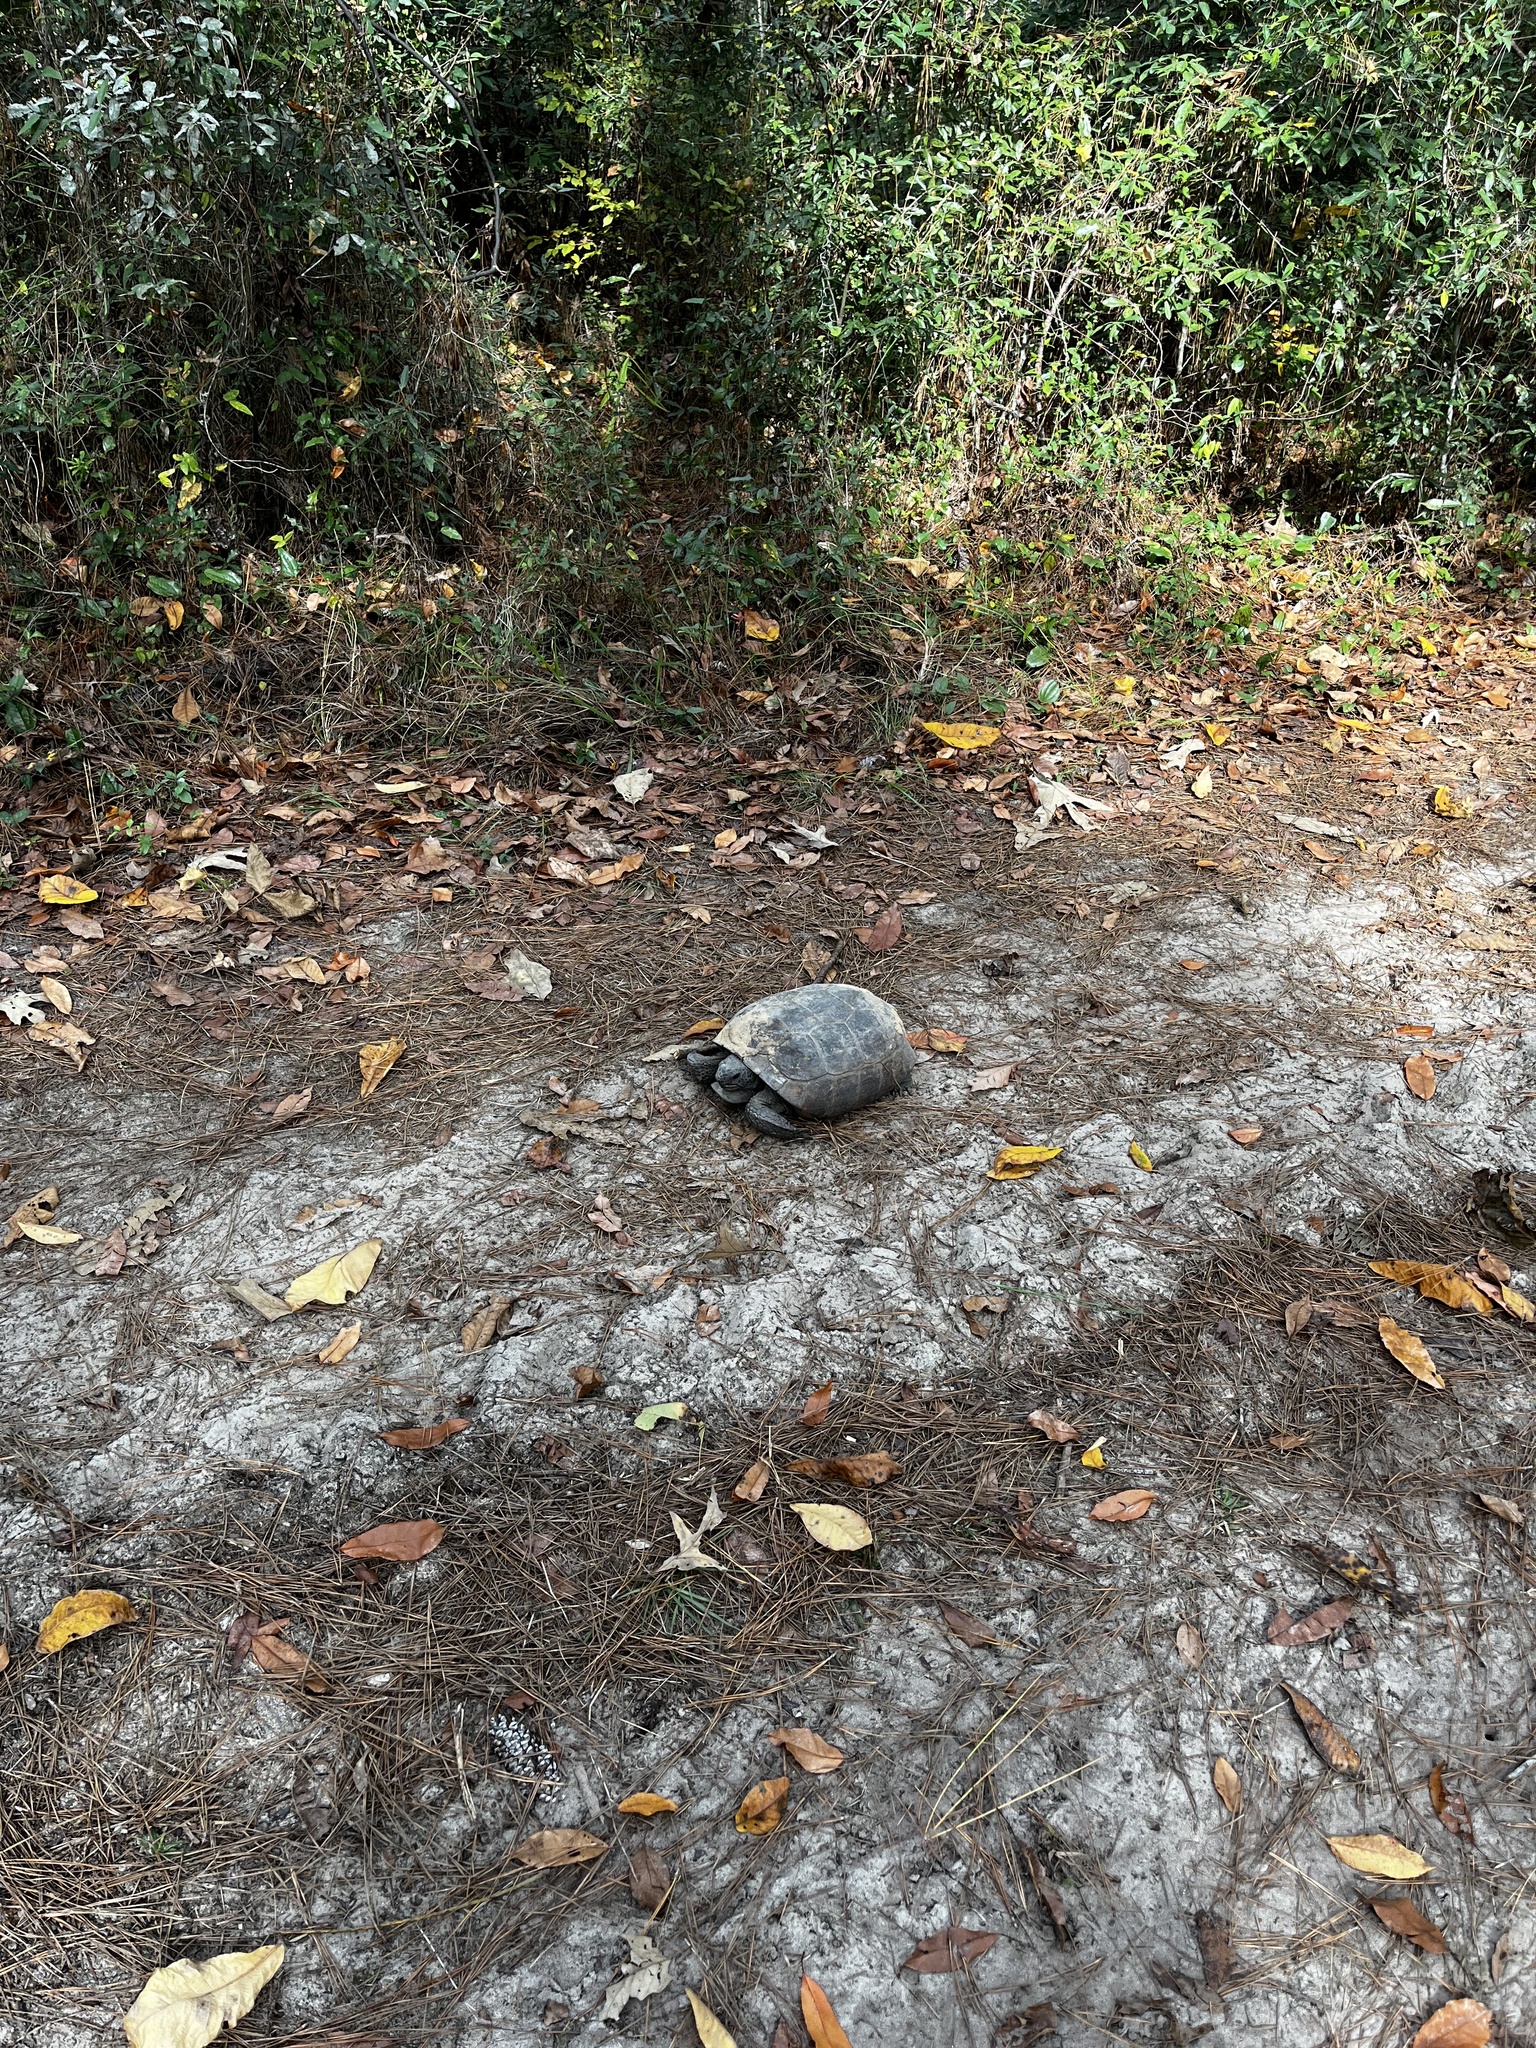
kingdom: Animalia
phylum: Chordata
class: Testudines
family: Testudinidae
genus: Gopherus
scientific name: Gopherus polyphemus
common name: Florida gopher tortoise
